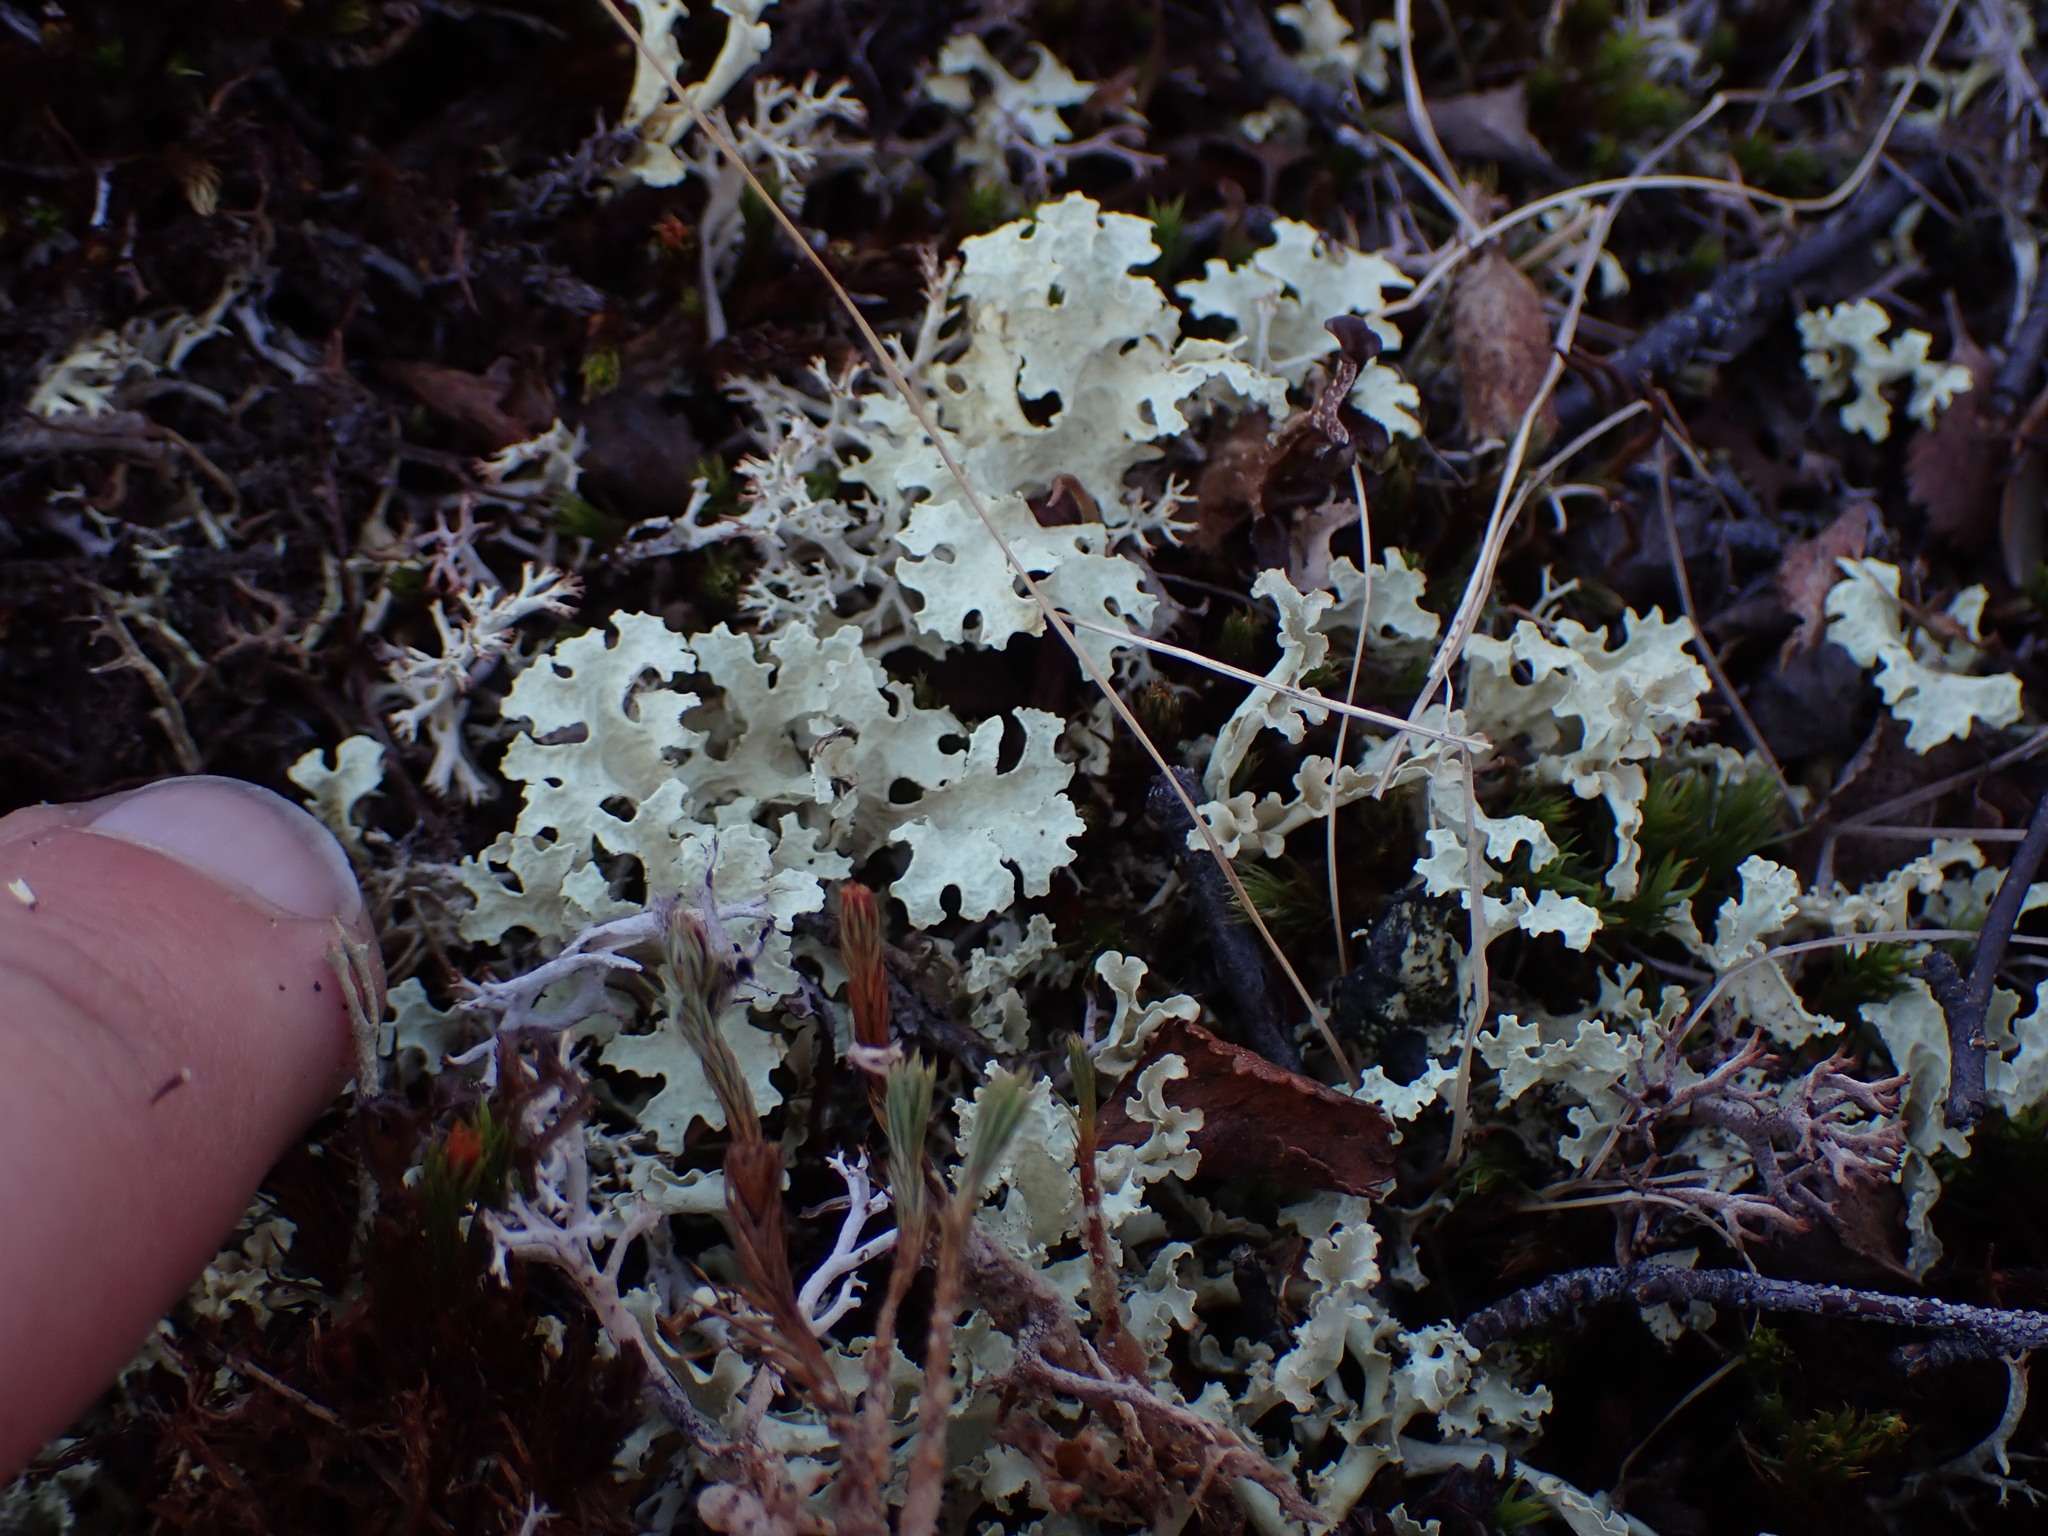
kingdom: Fungi
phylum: Ascomycota
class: Lecanoromycetes
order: Lecanorales
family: Parmeliaceae
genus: Nephromopsis
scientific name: Nephromopsis nivalis
